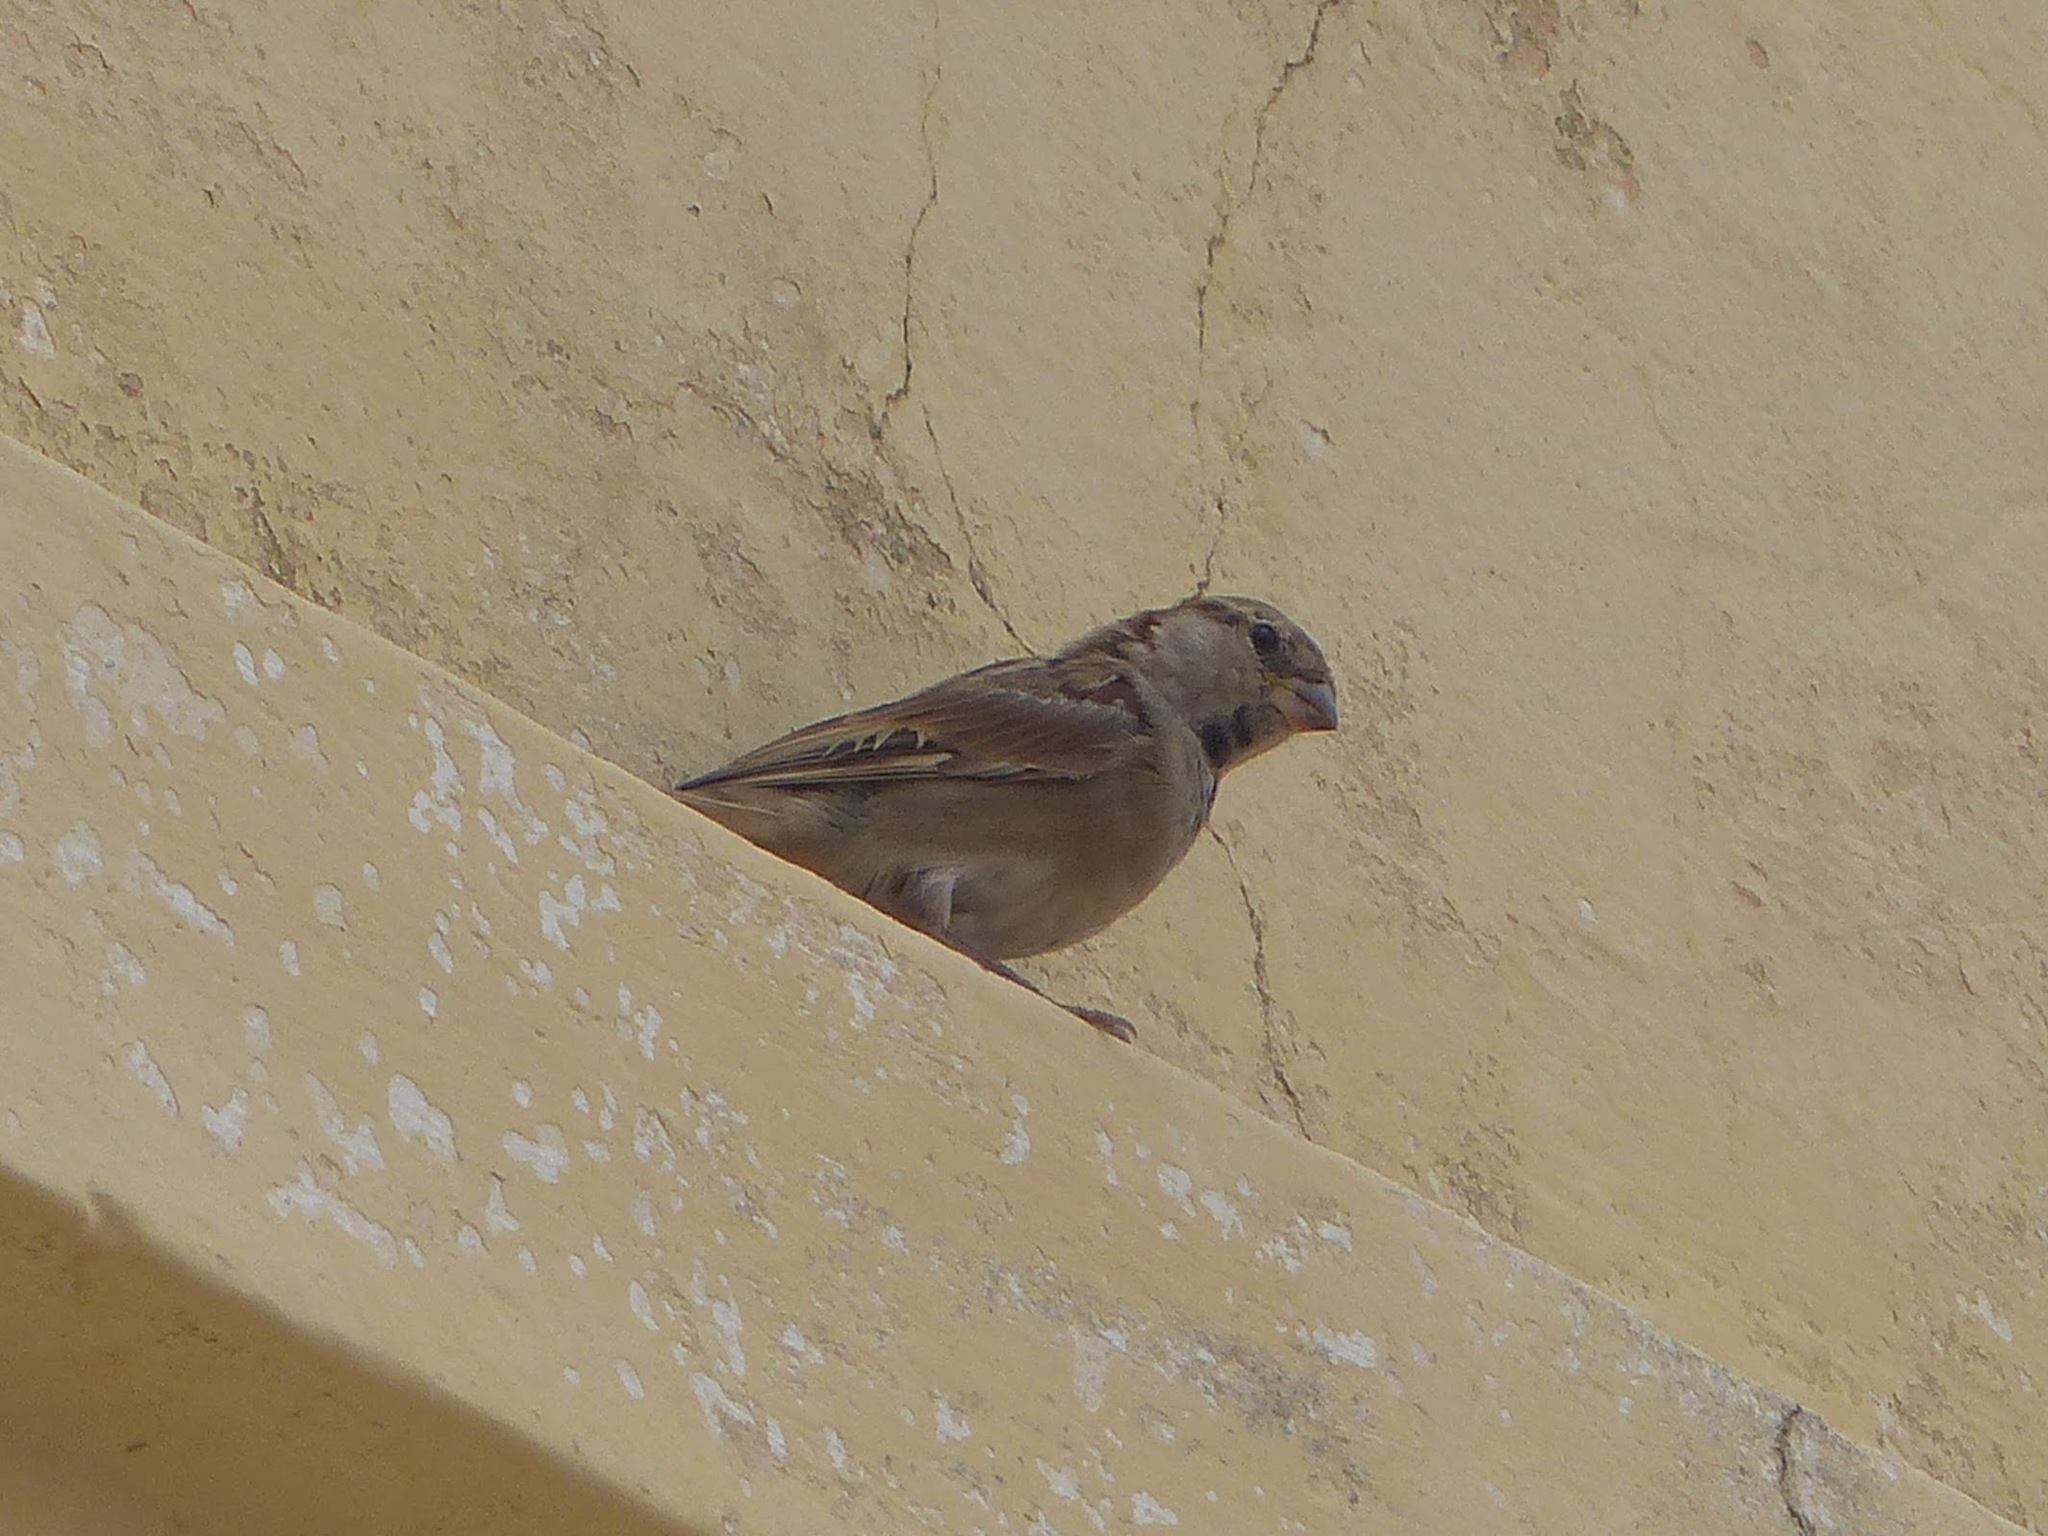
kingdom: Animalia
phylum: Chordata
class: Aves
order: Passeriformes
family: Passeridae
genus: Passer
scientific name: Passer domesticus
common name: House sparrow
